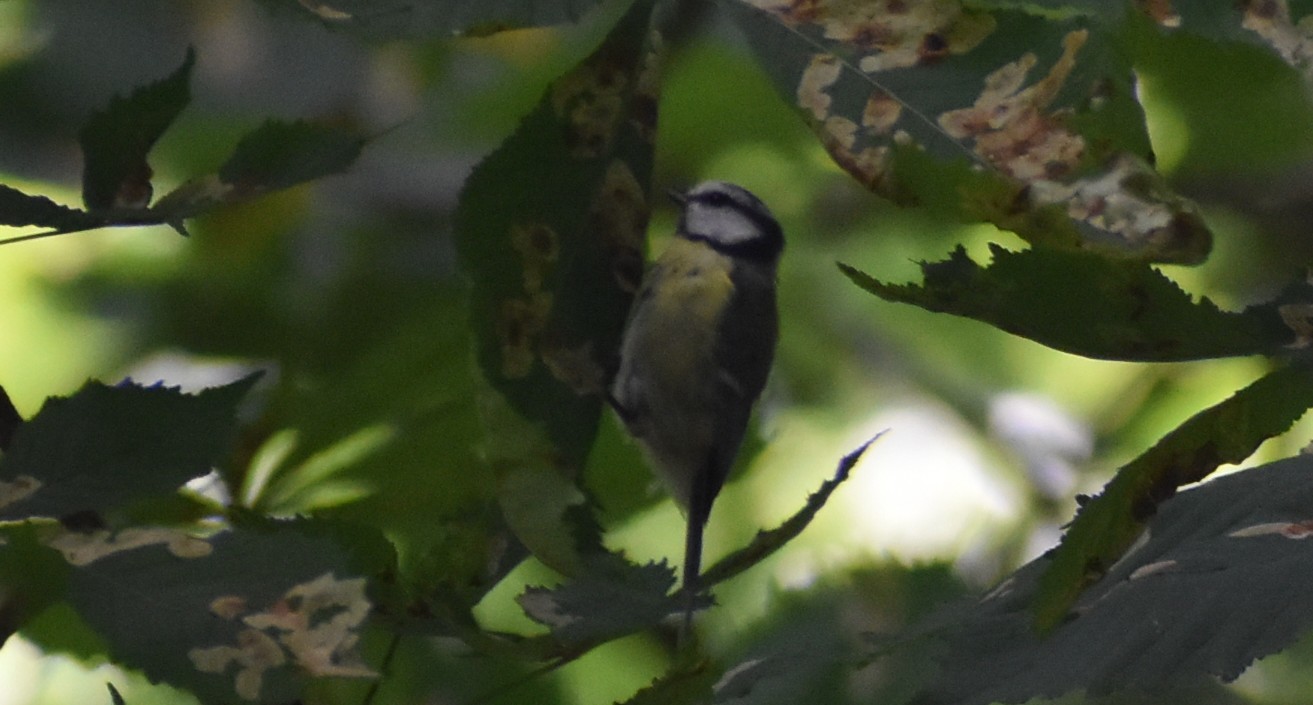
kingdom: Animalia
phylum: Chordata
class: Aves
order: Passeriformes
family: Paridae
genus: Cyanistes
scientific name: Cyanistes caeruleus
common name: Eurasian blue tit
